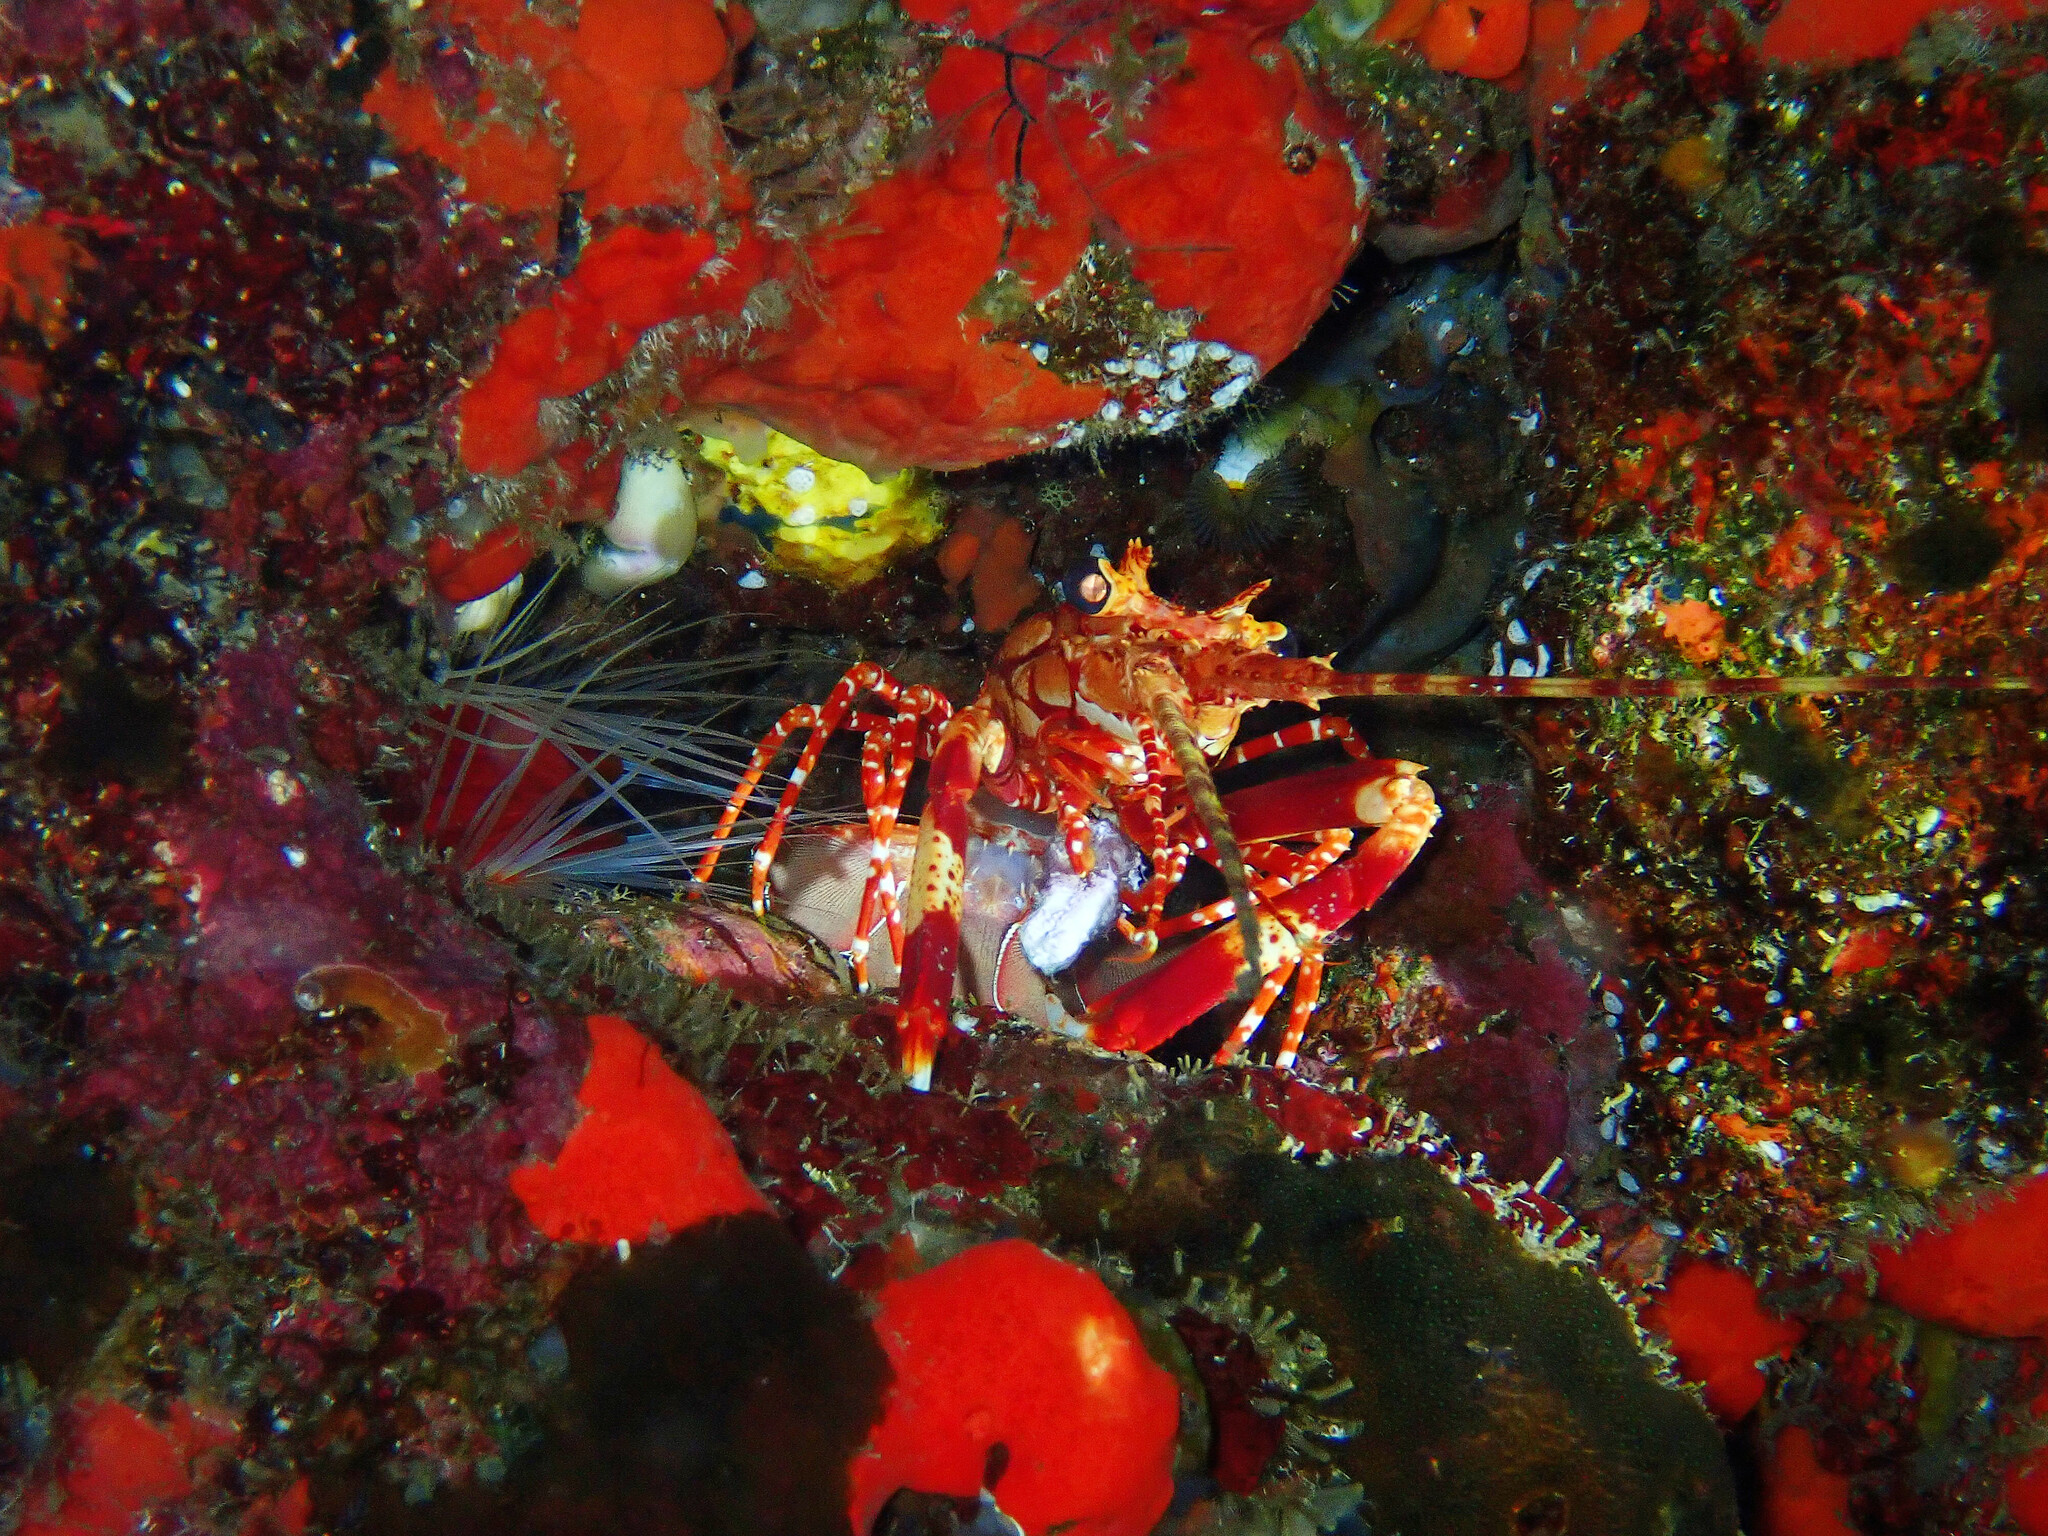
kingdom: Animalia
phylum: Arthropoda
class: Malacostraca
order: Decapoda
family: Palinuridae
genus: Justitia
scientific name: Justitia longimanus
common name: Gibbon furrow lobster
